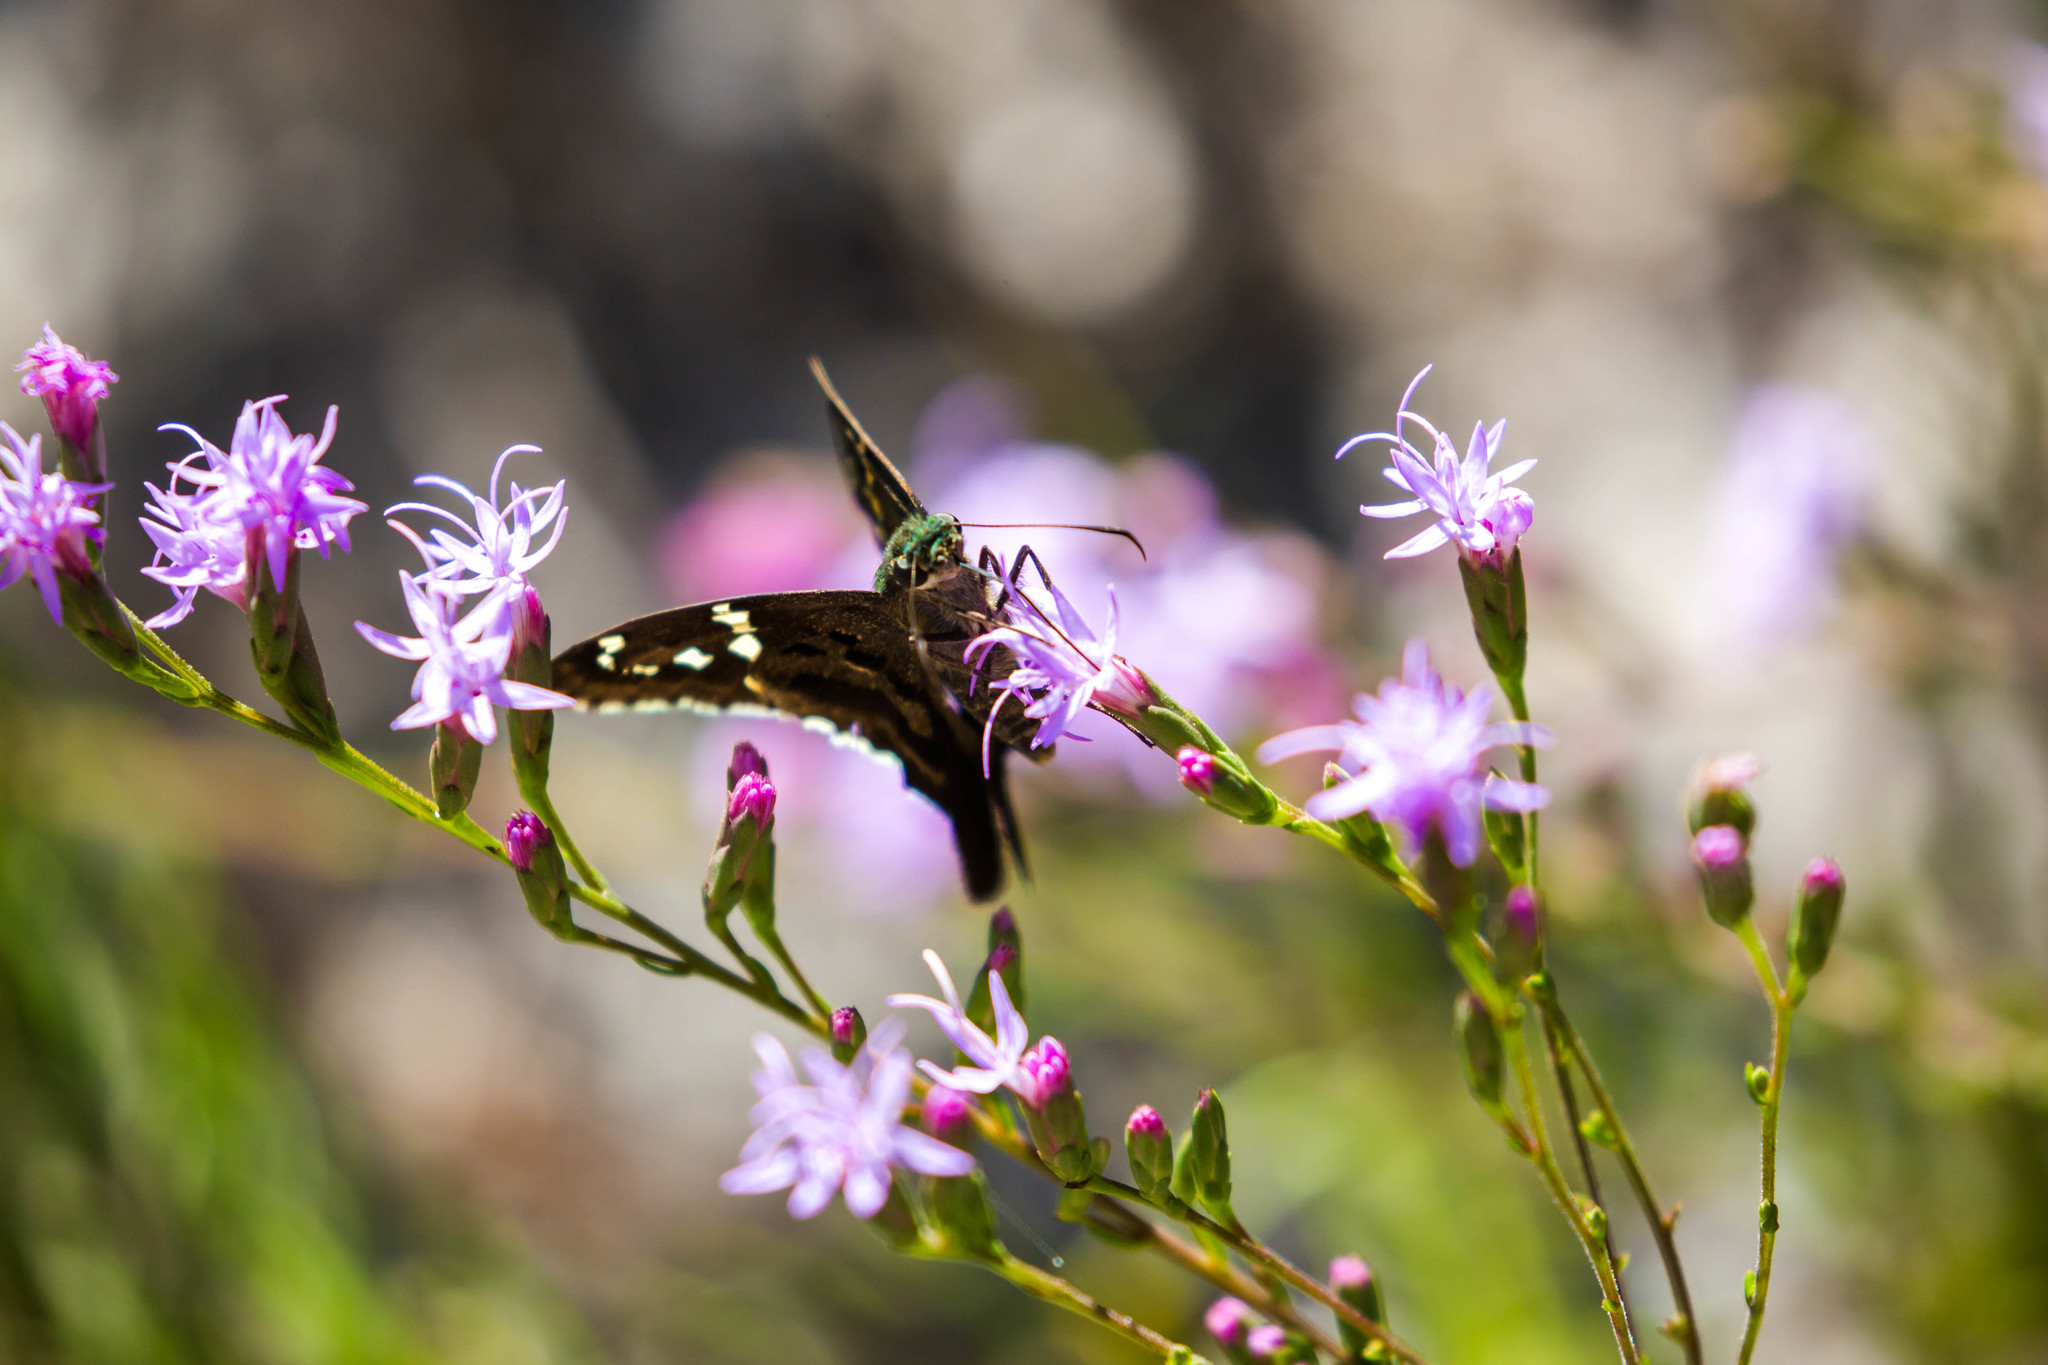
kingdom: Animalia
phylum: Arthropoda
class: Insecta
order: Lepidoptera
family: Hesperiidae
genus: Urbanus
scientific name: Urbanus proteus
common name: Long-tailed skipper
